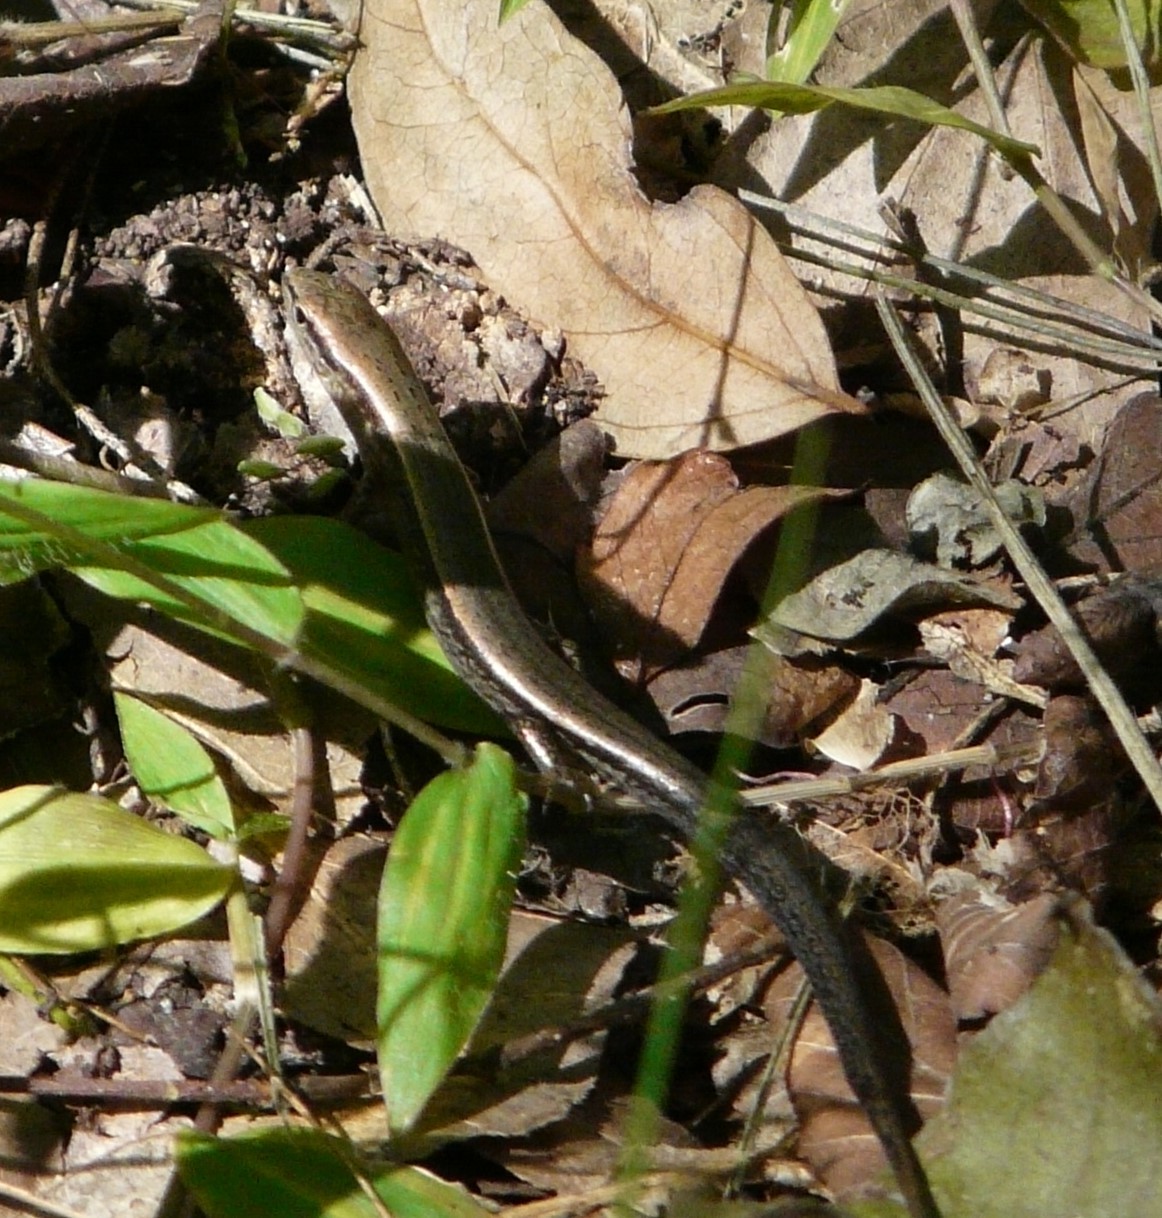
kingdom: Animalia
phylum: Chordata
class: Squamata
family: Scincidae
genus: Scincella
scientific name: Scincella lateralis
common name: Ground skink
